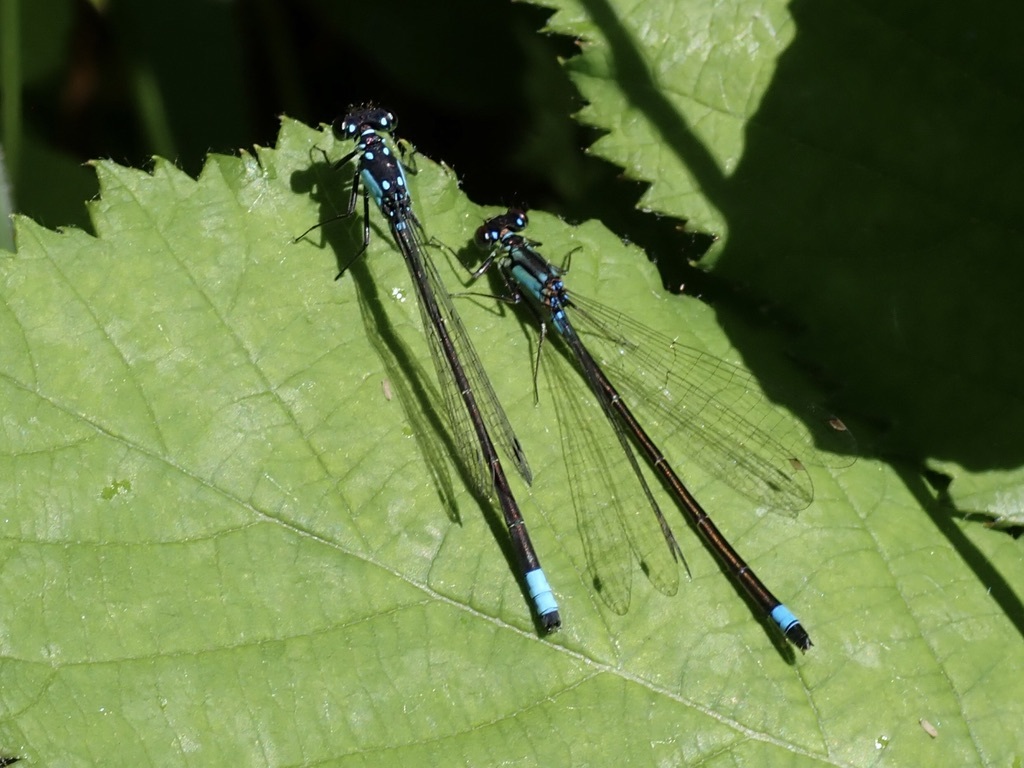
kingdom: Animalia
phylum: Arthropoda
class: Insecta
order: Odonata
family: Coenagrionidae
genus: Ischnura
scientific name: Ischnura cervula
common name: Pacific forktail
